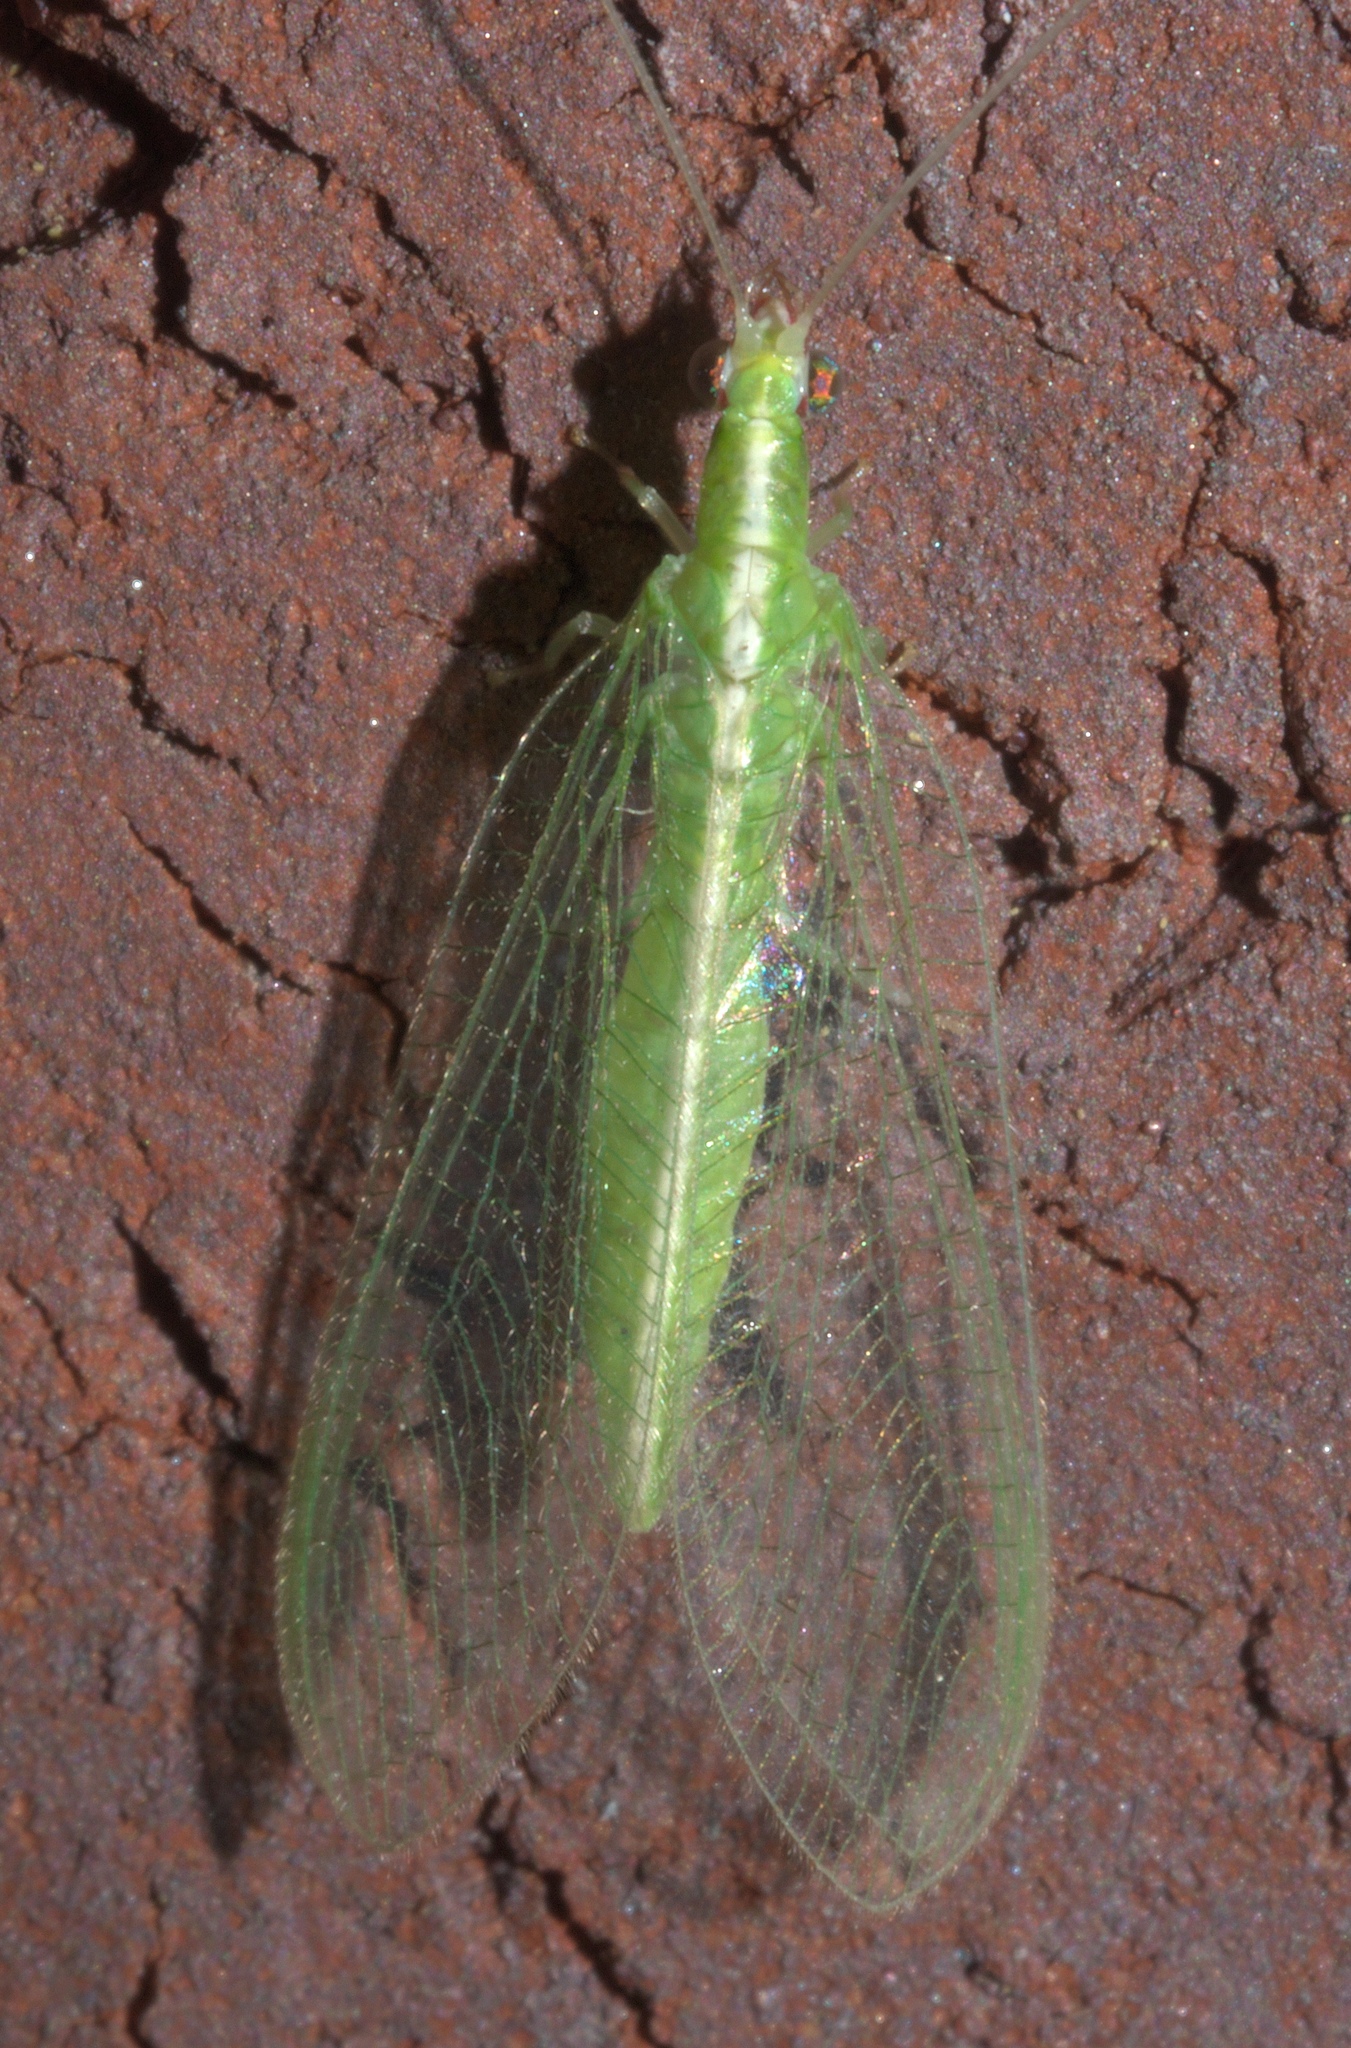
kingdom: Animalia
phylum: Arthropoda
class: Insecta
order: Neuroptera
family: Chrysopidae
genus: Chrysoperla
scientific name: Chrysoperla rufilabris
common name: Red-lipped green lacewing
